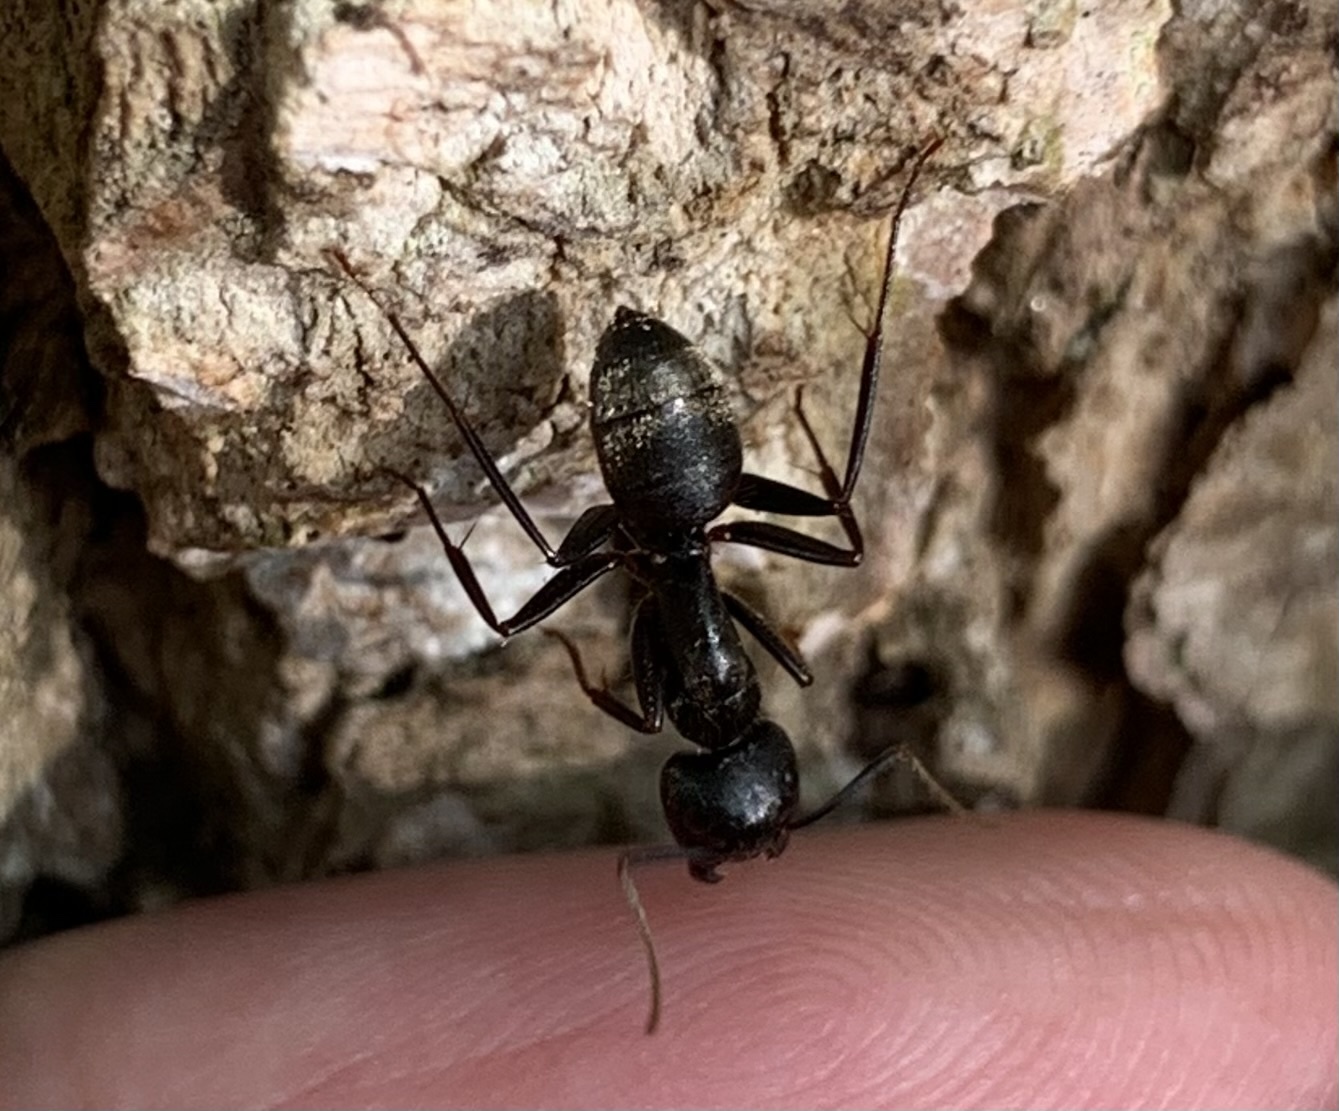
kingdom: Animalia
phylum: Arthropoda
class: Insecta
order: Hymenoptera
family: Formicidae
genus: Camponotus
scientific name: Camponotus pennsylvanicus
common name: Black carpenter ant
